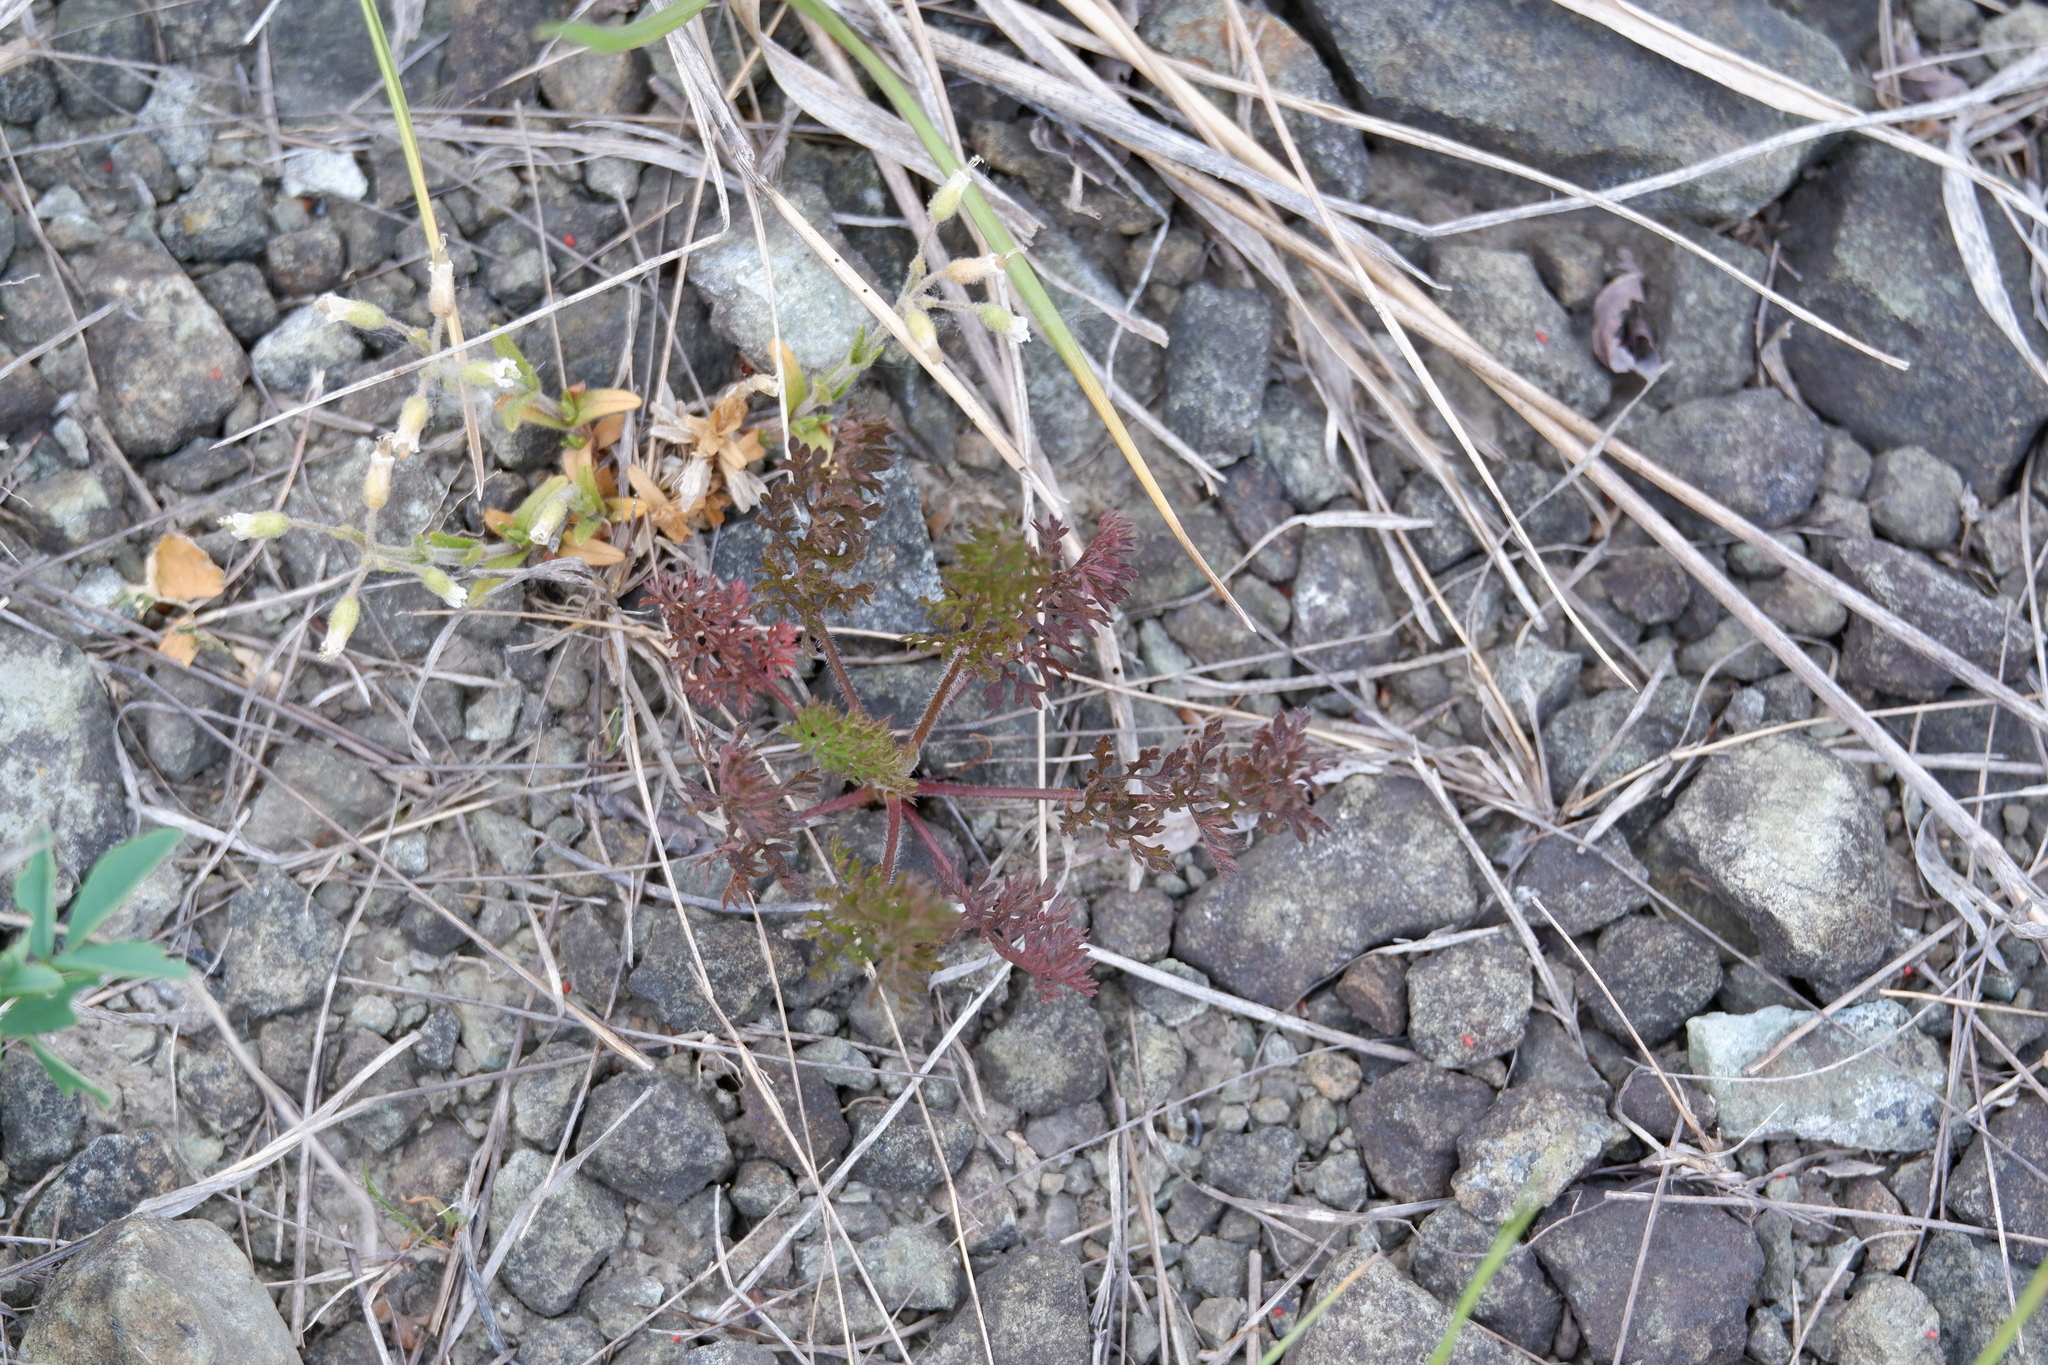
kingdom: Plantae
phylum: Tracheophyta
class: Magnoliopsida
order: Apiales
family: Apiaceae
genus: Daucus
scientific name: Daucus carota
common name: Wild carrot
